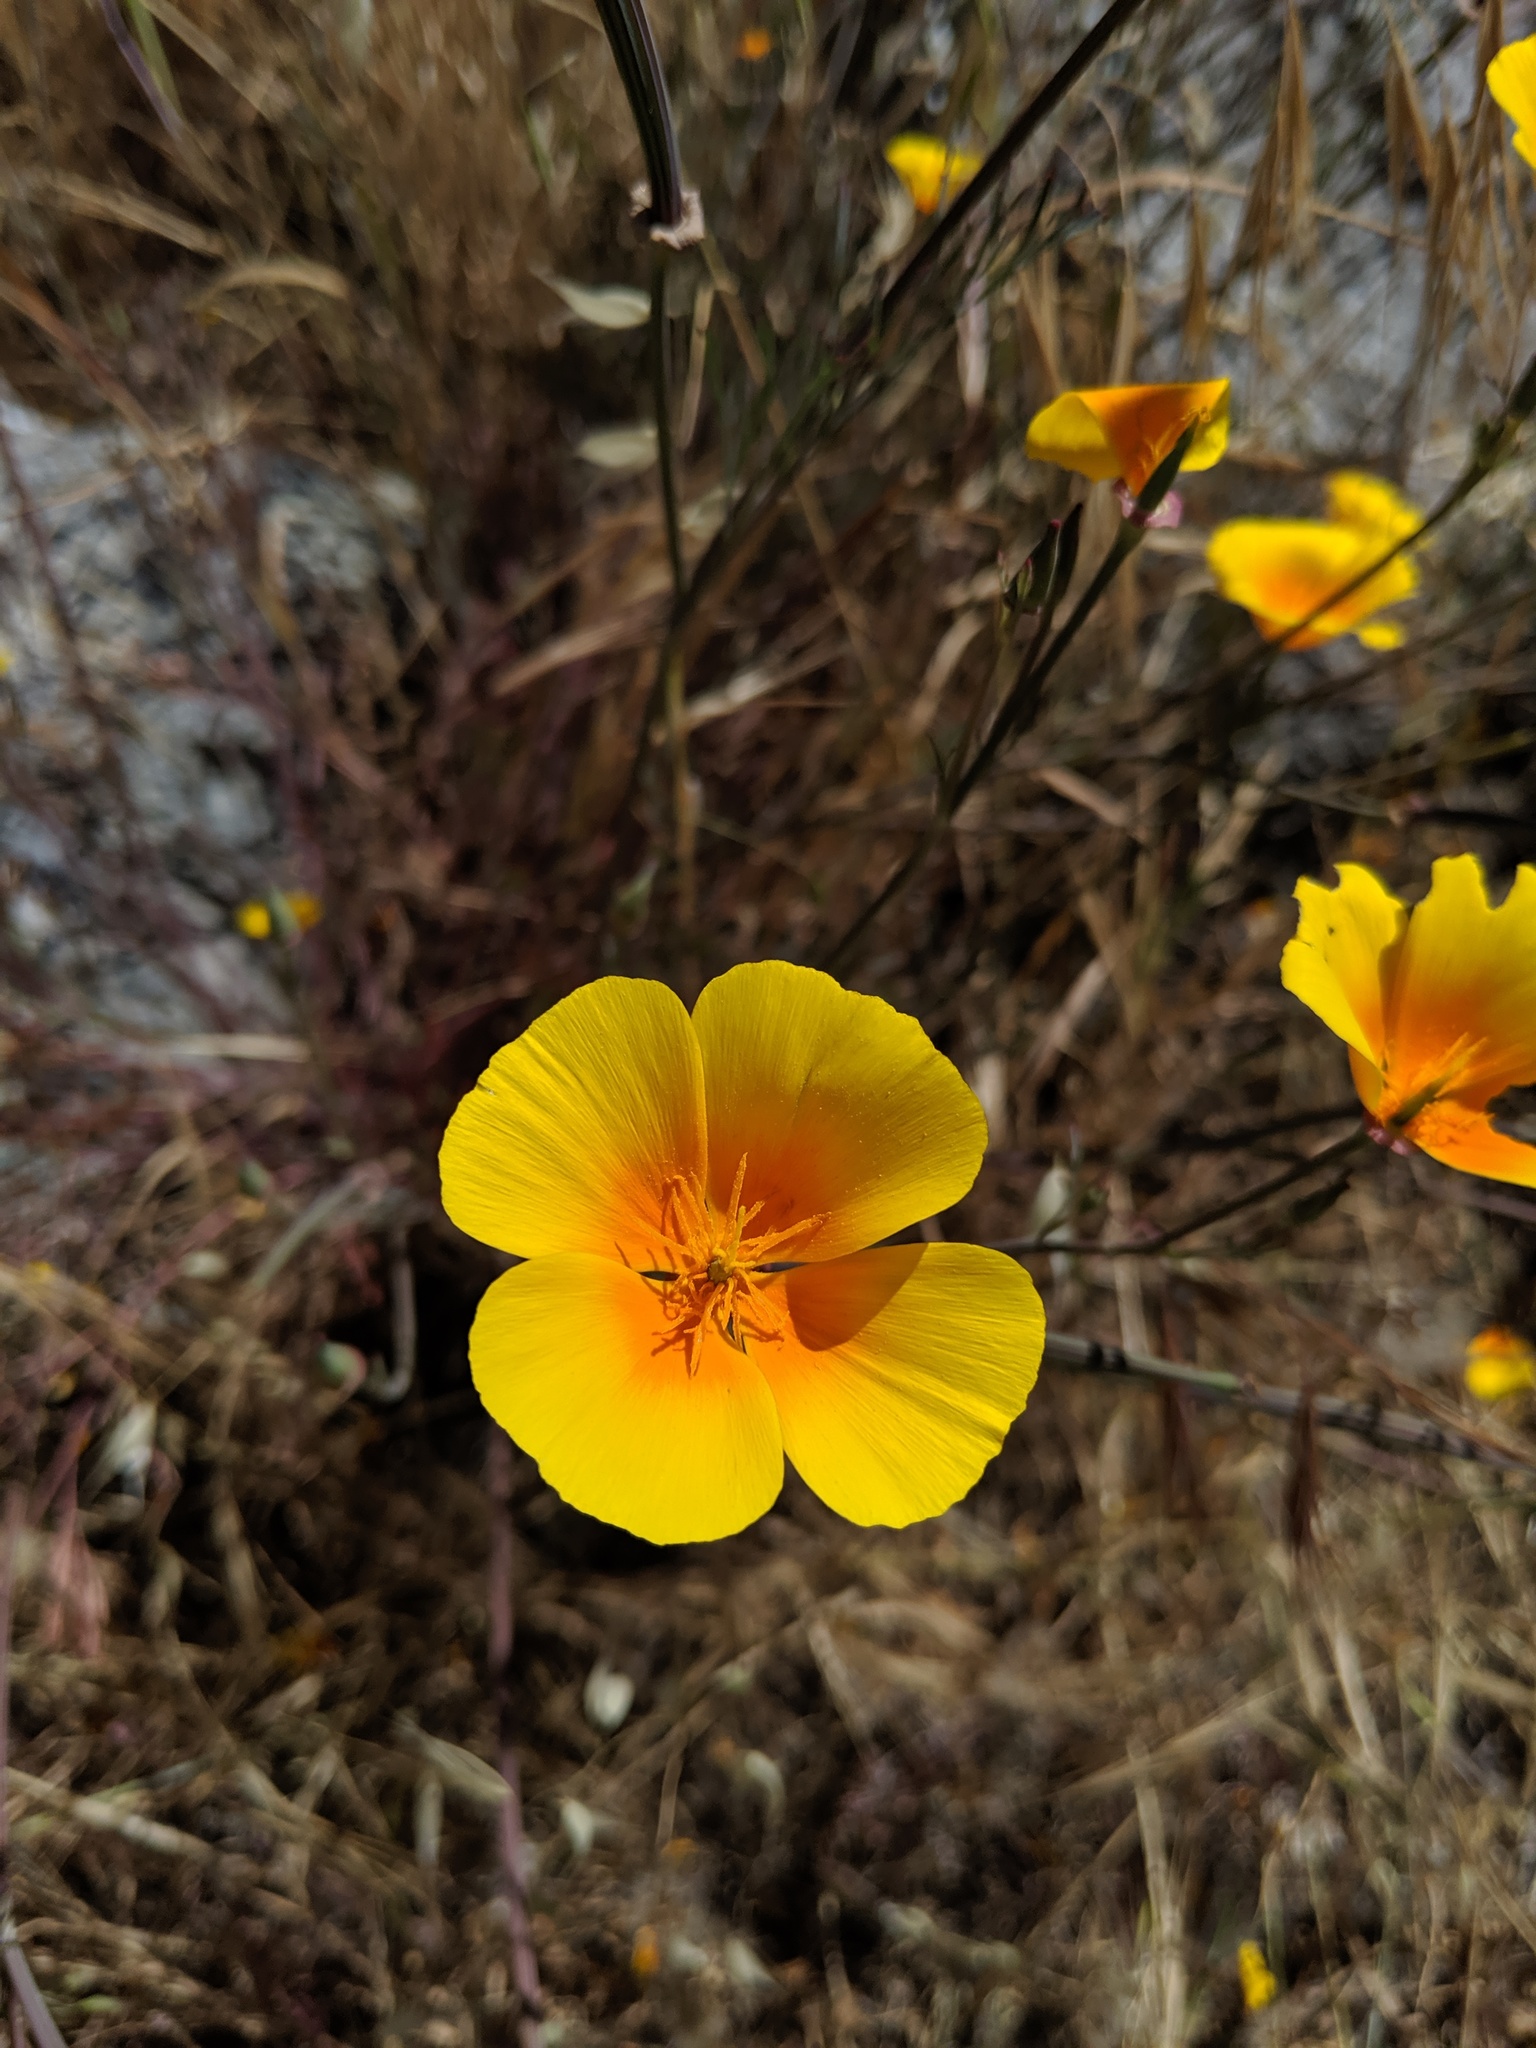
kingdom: Plantae
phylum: Tracheophyta
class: Magnoliopsida
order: Ranunculales
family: Papaveraceae
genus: Eschscholzia
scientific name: Eschscholzia californica
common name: California poppy
